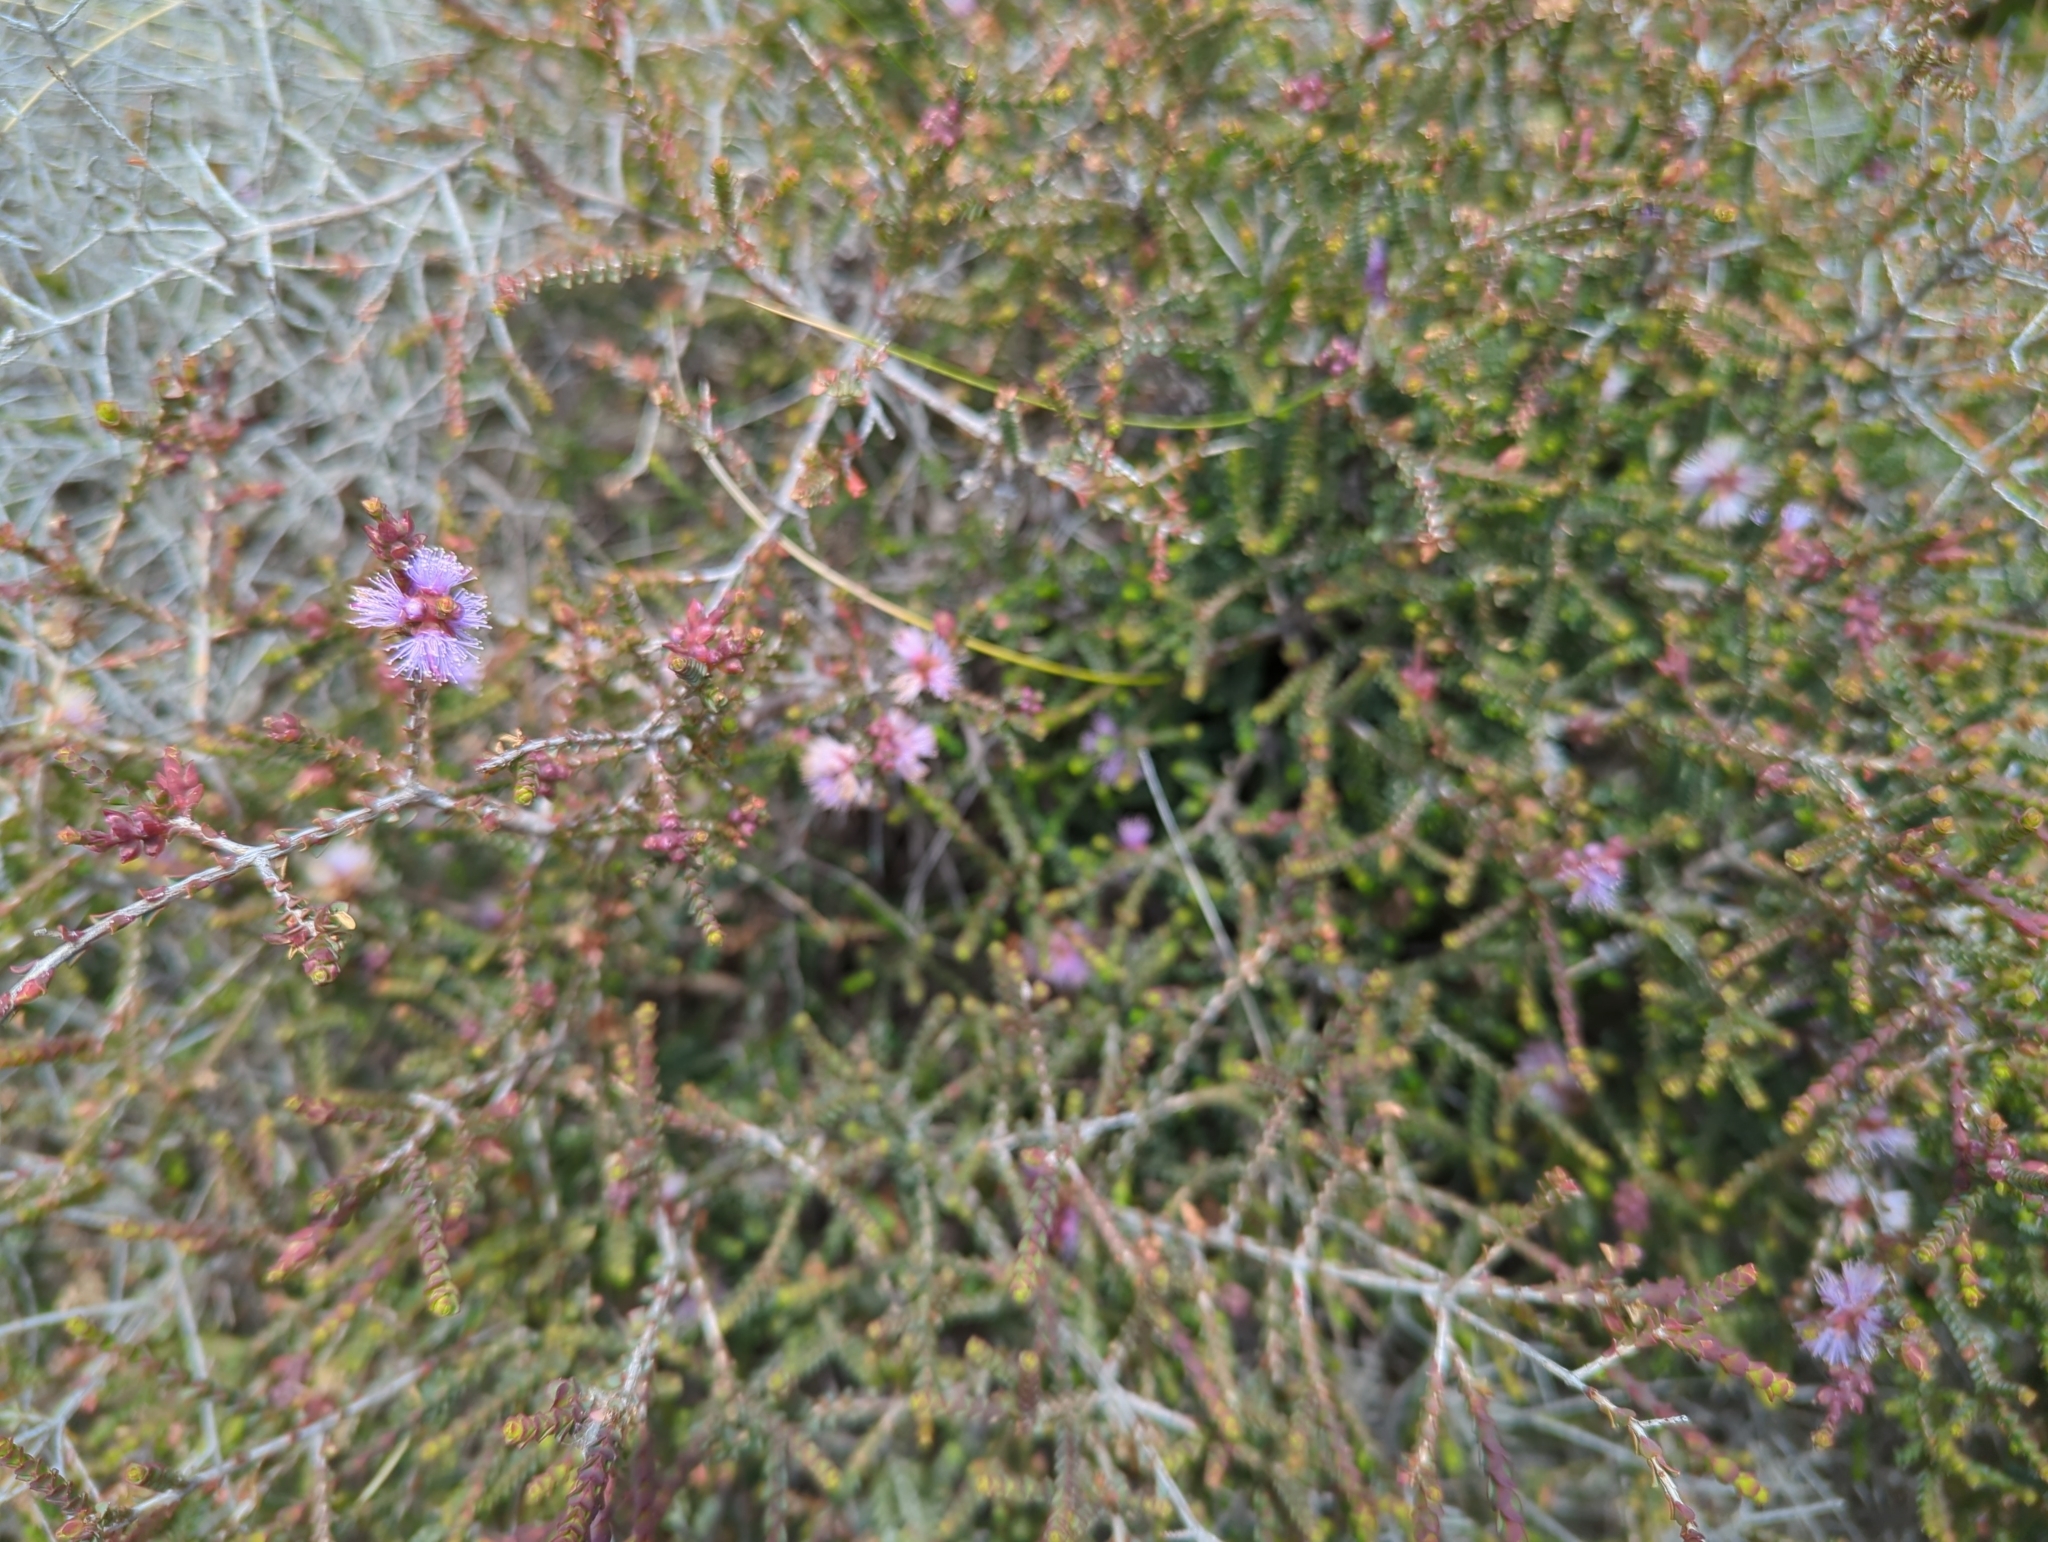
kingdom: Plantae
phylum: Tracheophyta
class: Magnoliopsida
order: Myrtales
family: Myrtaceae
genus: Melaleuca
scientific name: Melaleuca gibbosa
